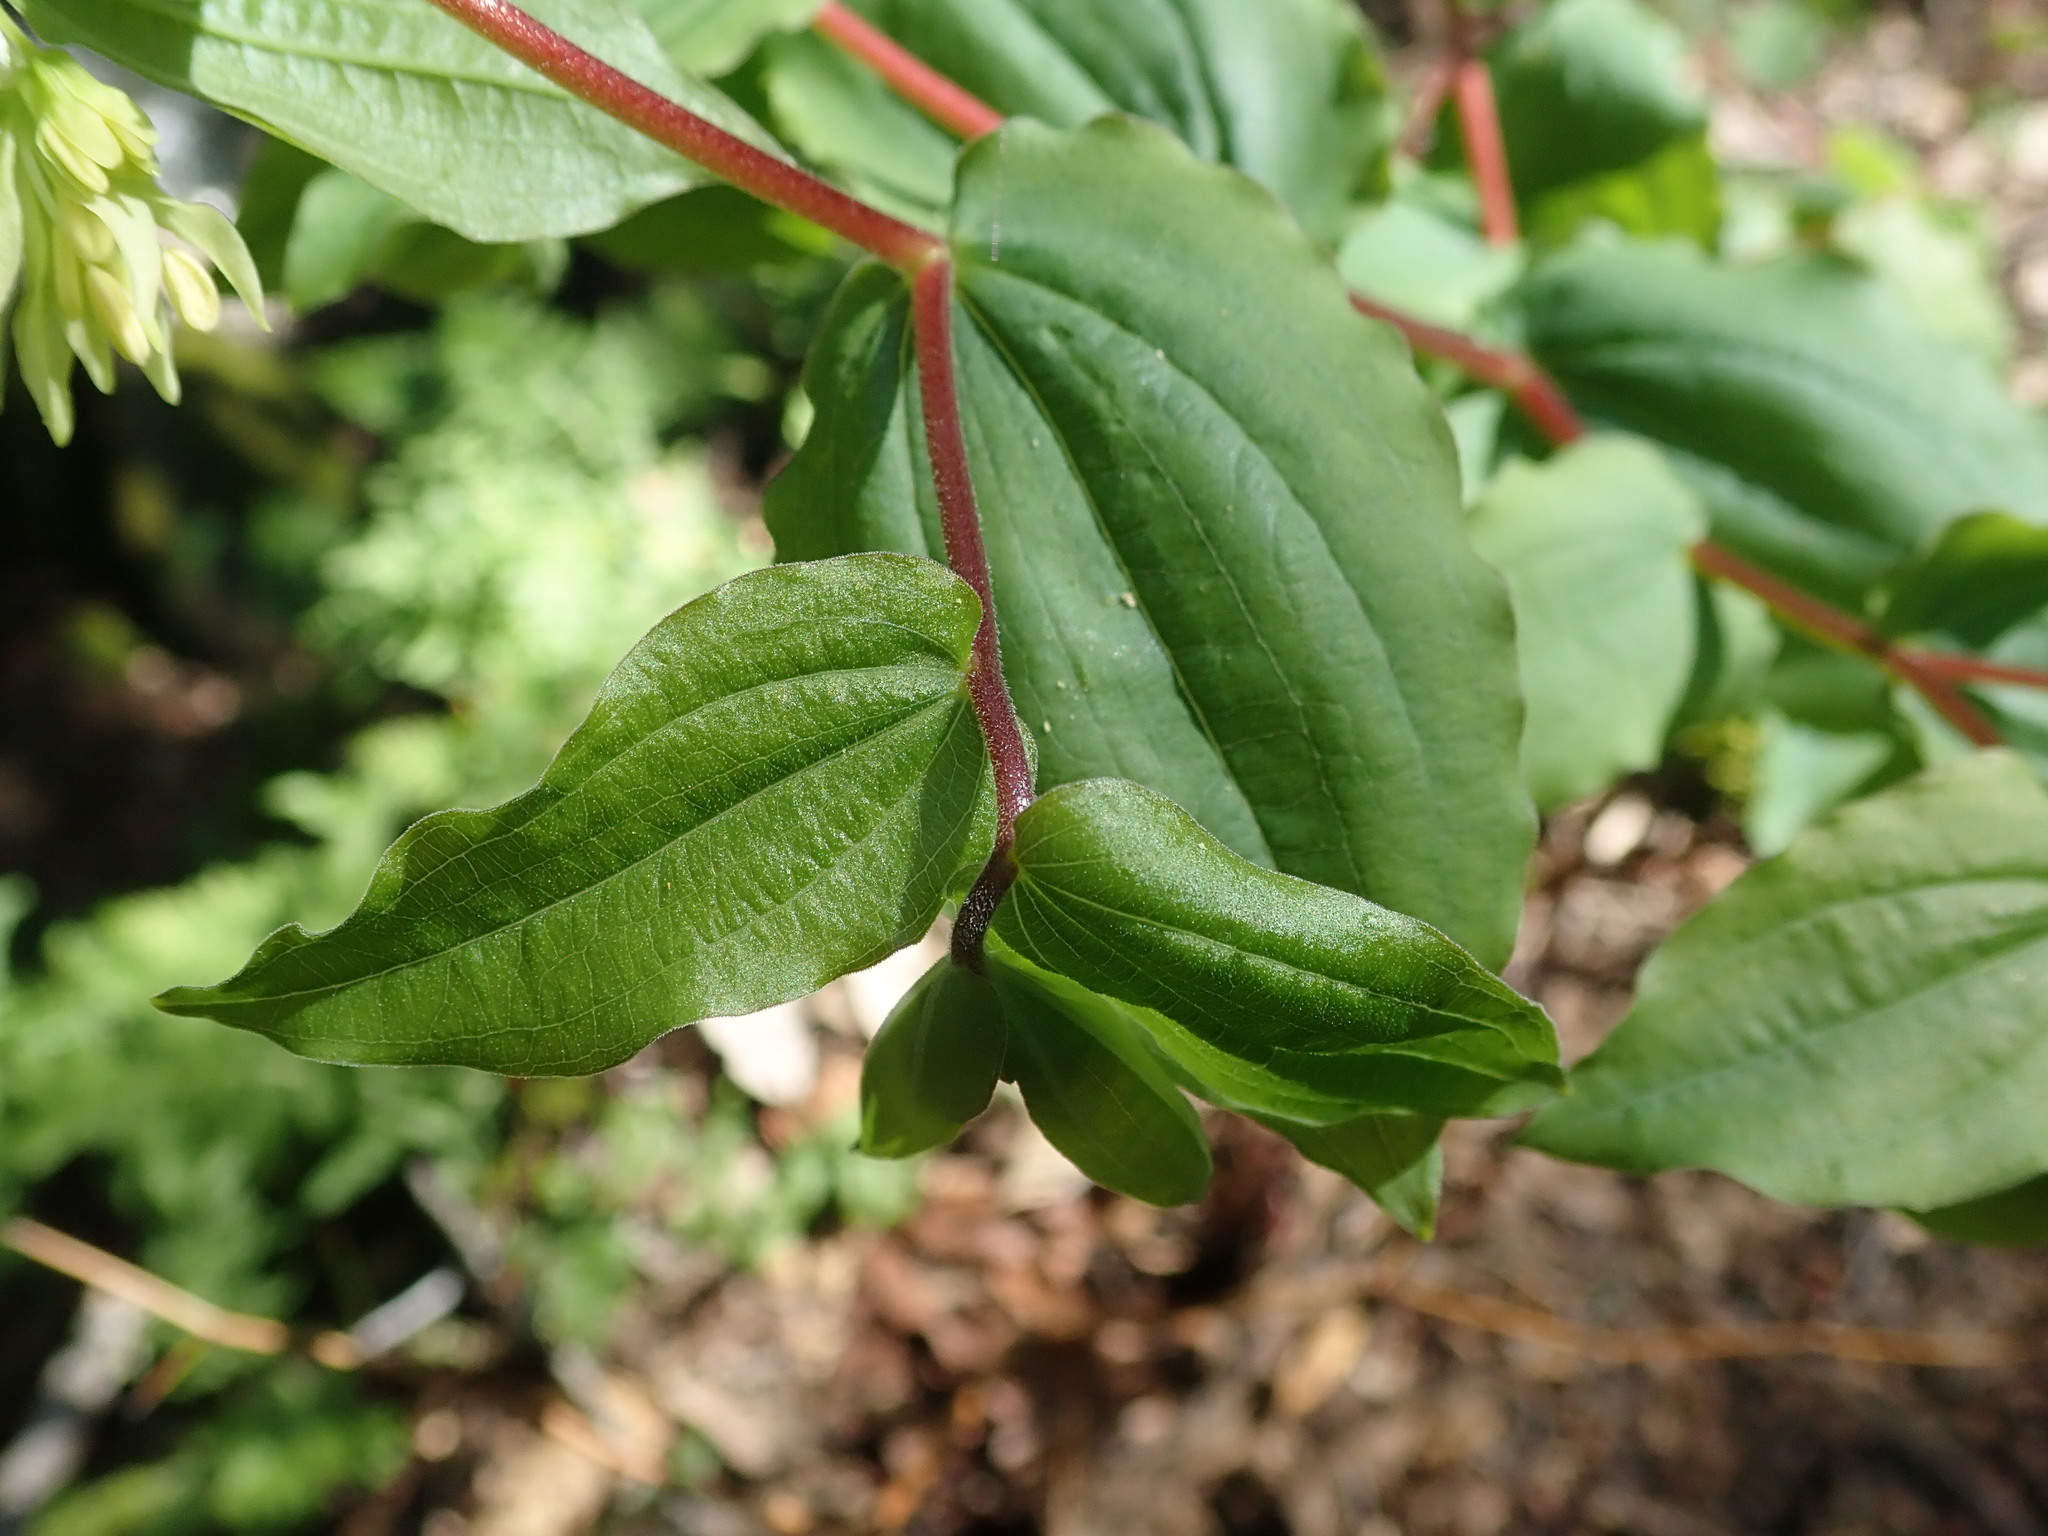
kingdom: Plantae
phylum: Tracheophyta
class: Liliopsida
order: Liliales
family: Liliaceae
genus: Prosartes
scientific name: Prosartes hookeri
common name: Fairy-bells
